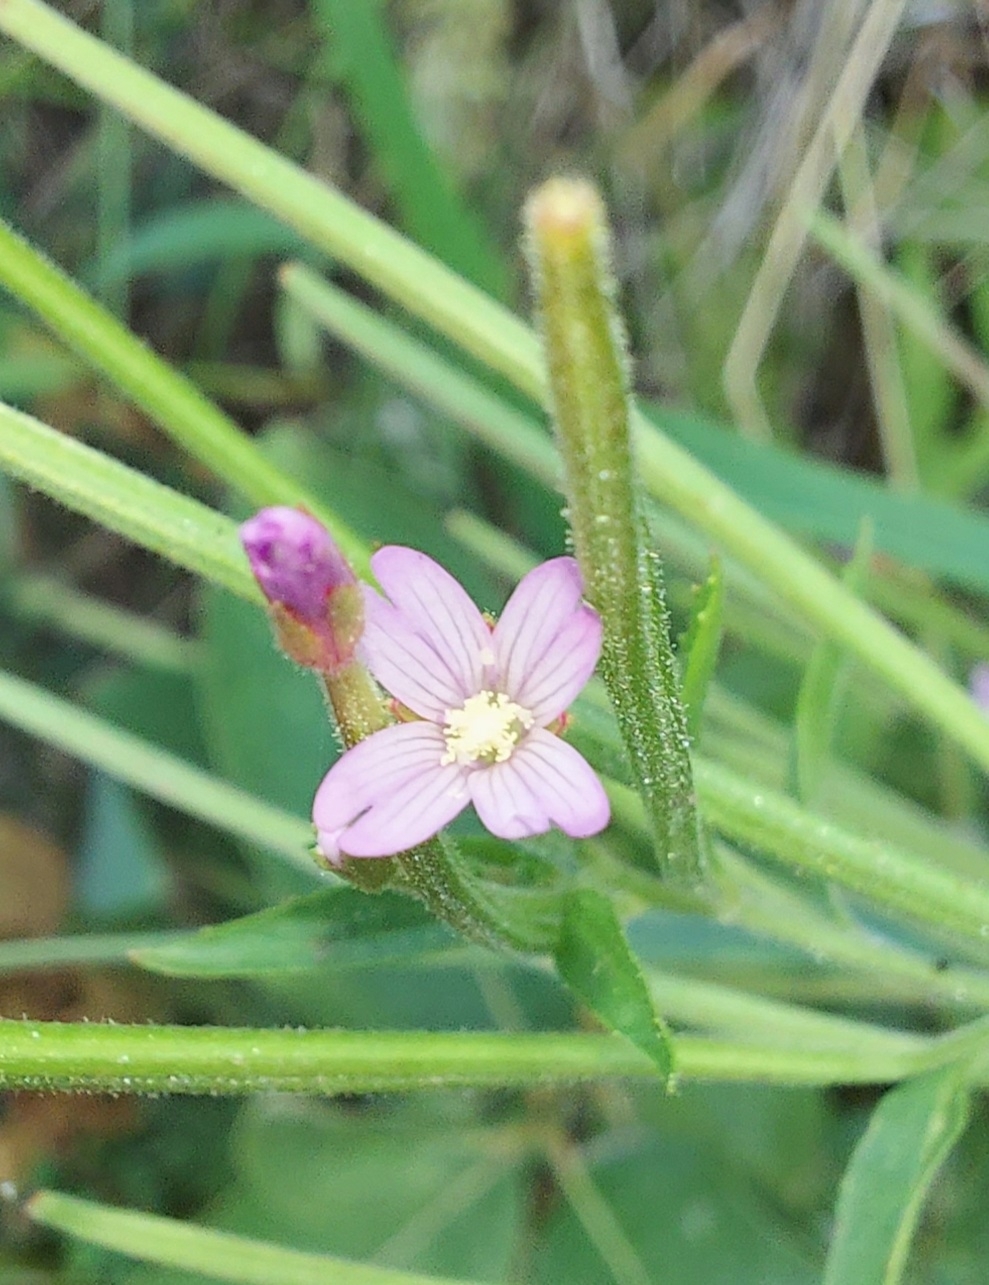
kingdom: Plantae
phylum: Tracheophyta
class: Magnoliopsida
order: Myrtales
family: Onagraceae
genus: Epilobium
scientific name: Epilobium ciliatum
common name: American willowherb
